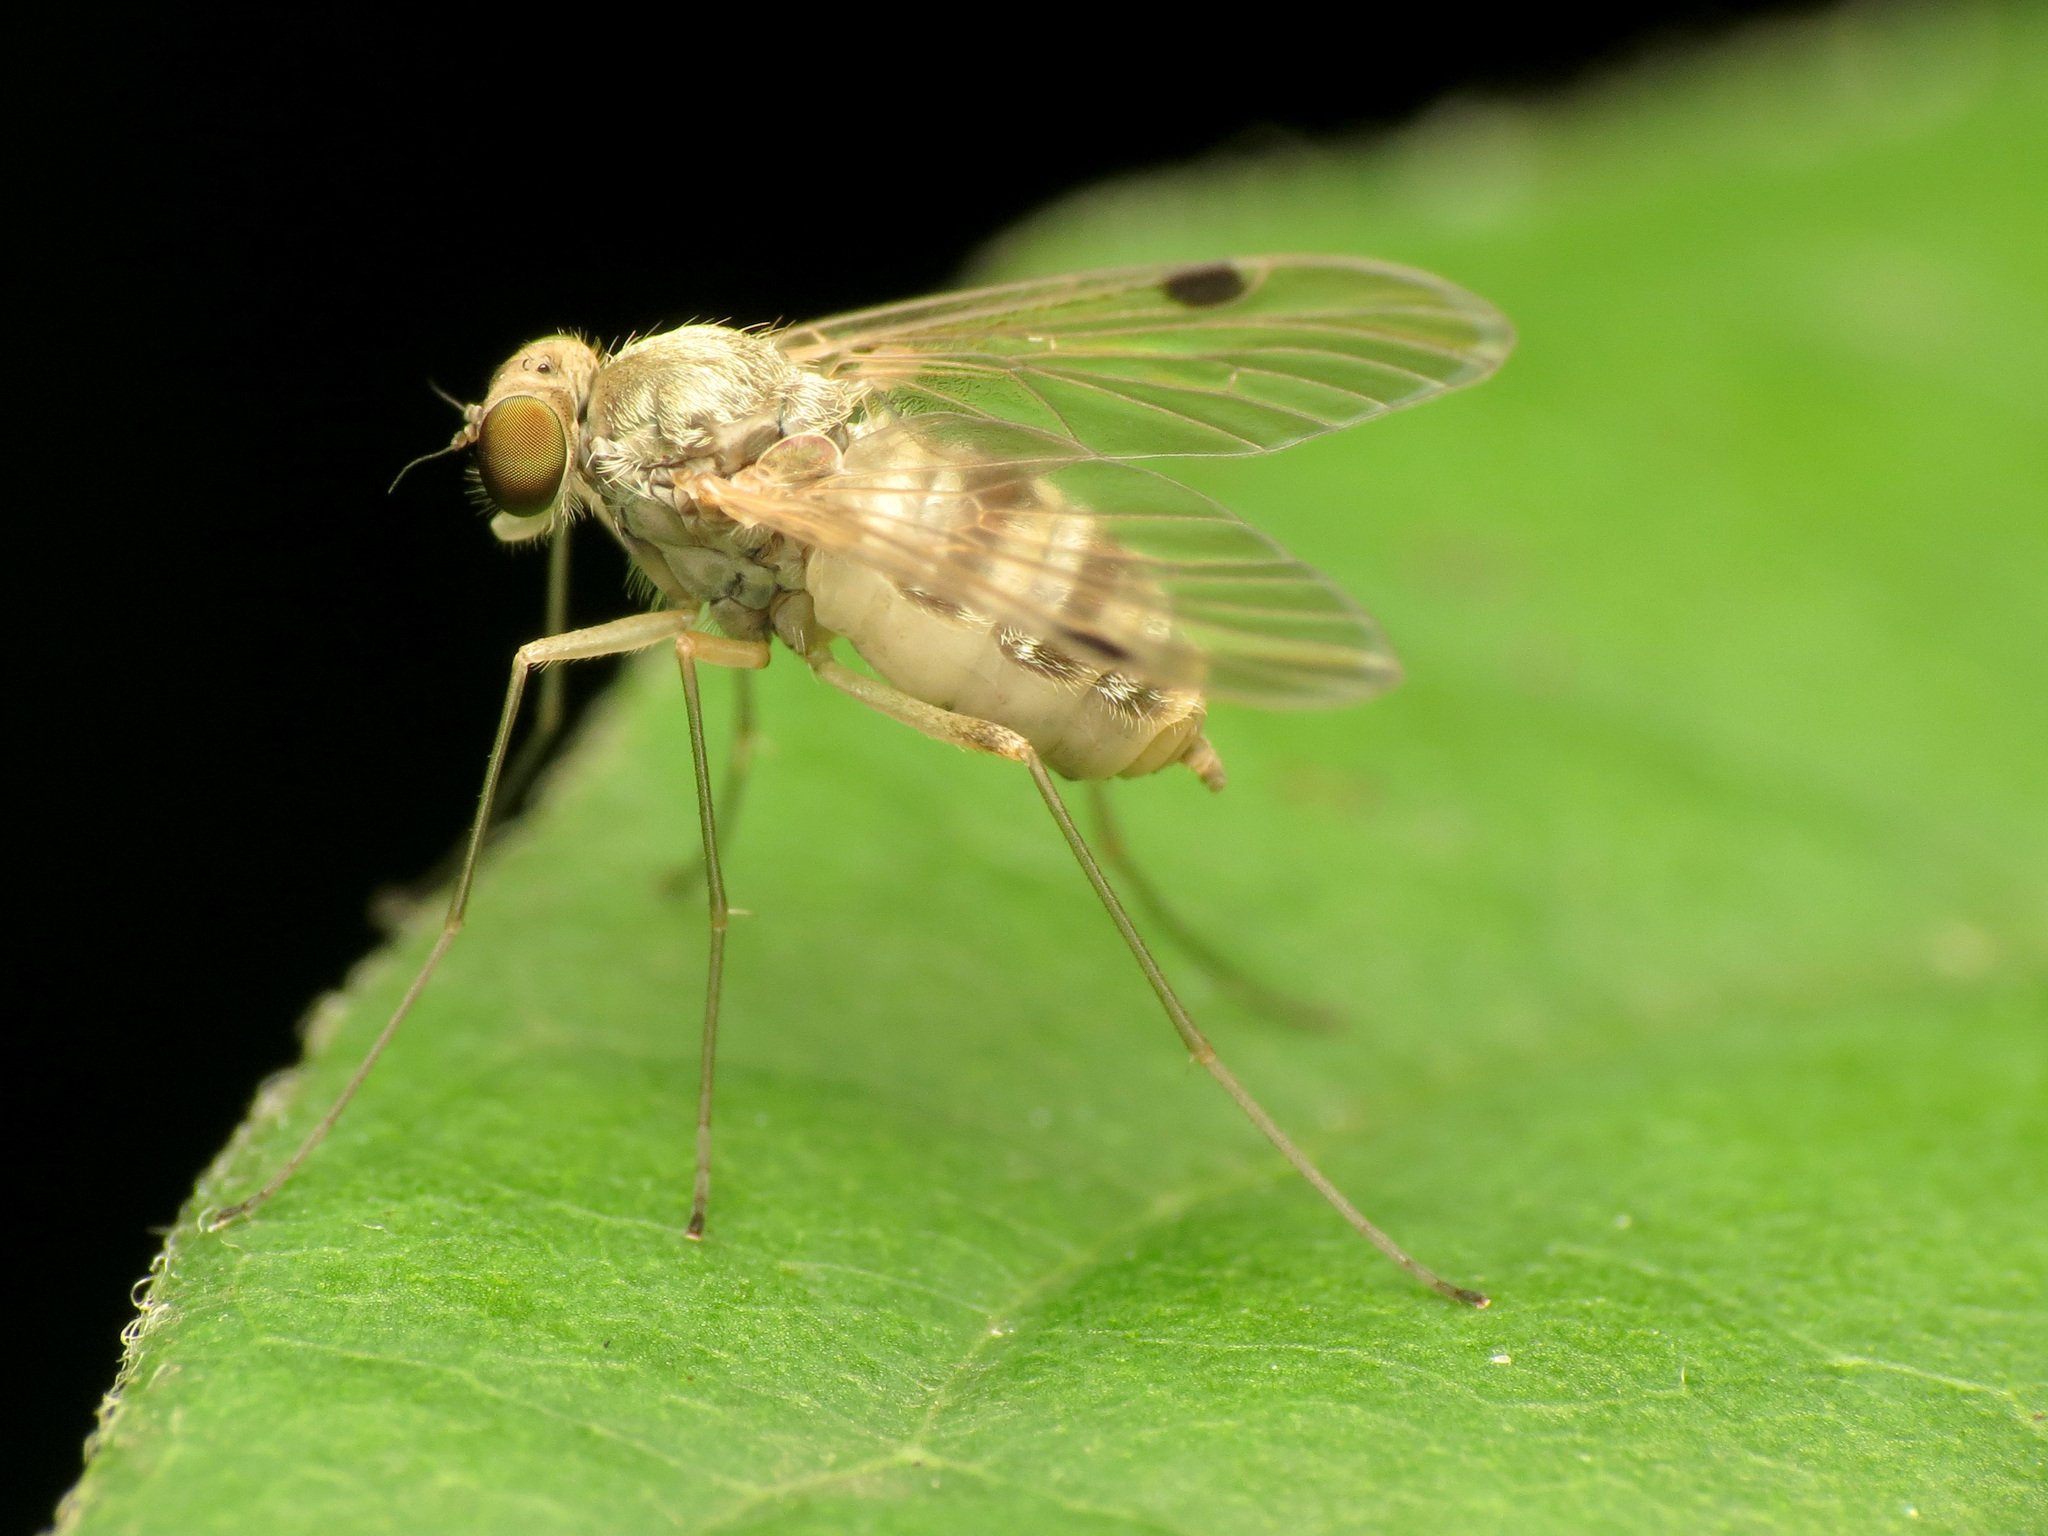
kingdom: Animalia
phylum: Arthropoda
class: Insecta
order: Diptera
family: Rhagionidae
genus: Chrysopilus
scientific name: Chrysopilus modestus
